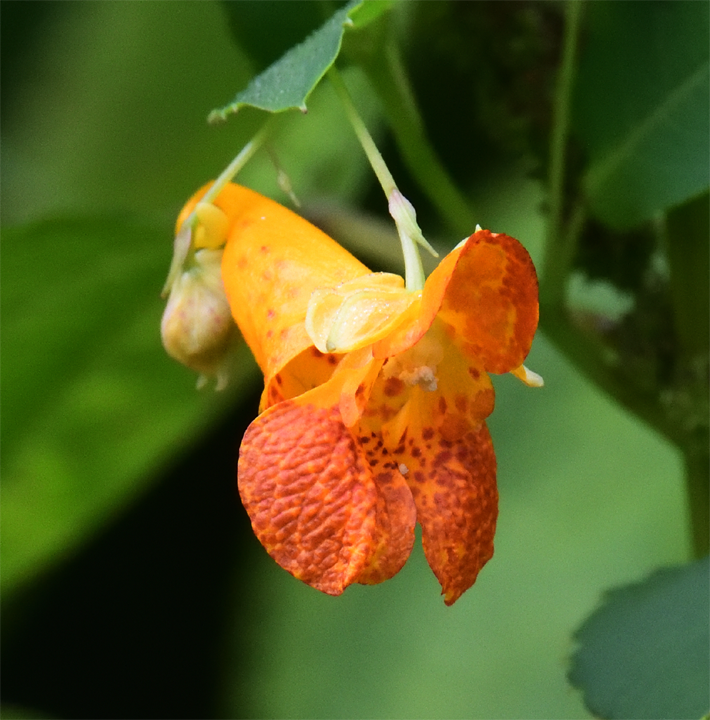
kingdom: Plantae
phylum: Tracheophyta
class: Magnoliopsida
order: Ericales
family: Balsaminaceae
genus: Impatiens
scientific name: Impatiens capensis
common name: Orange balsam
